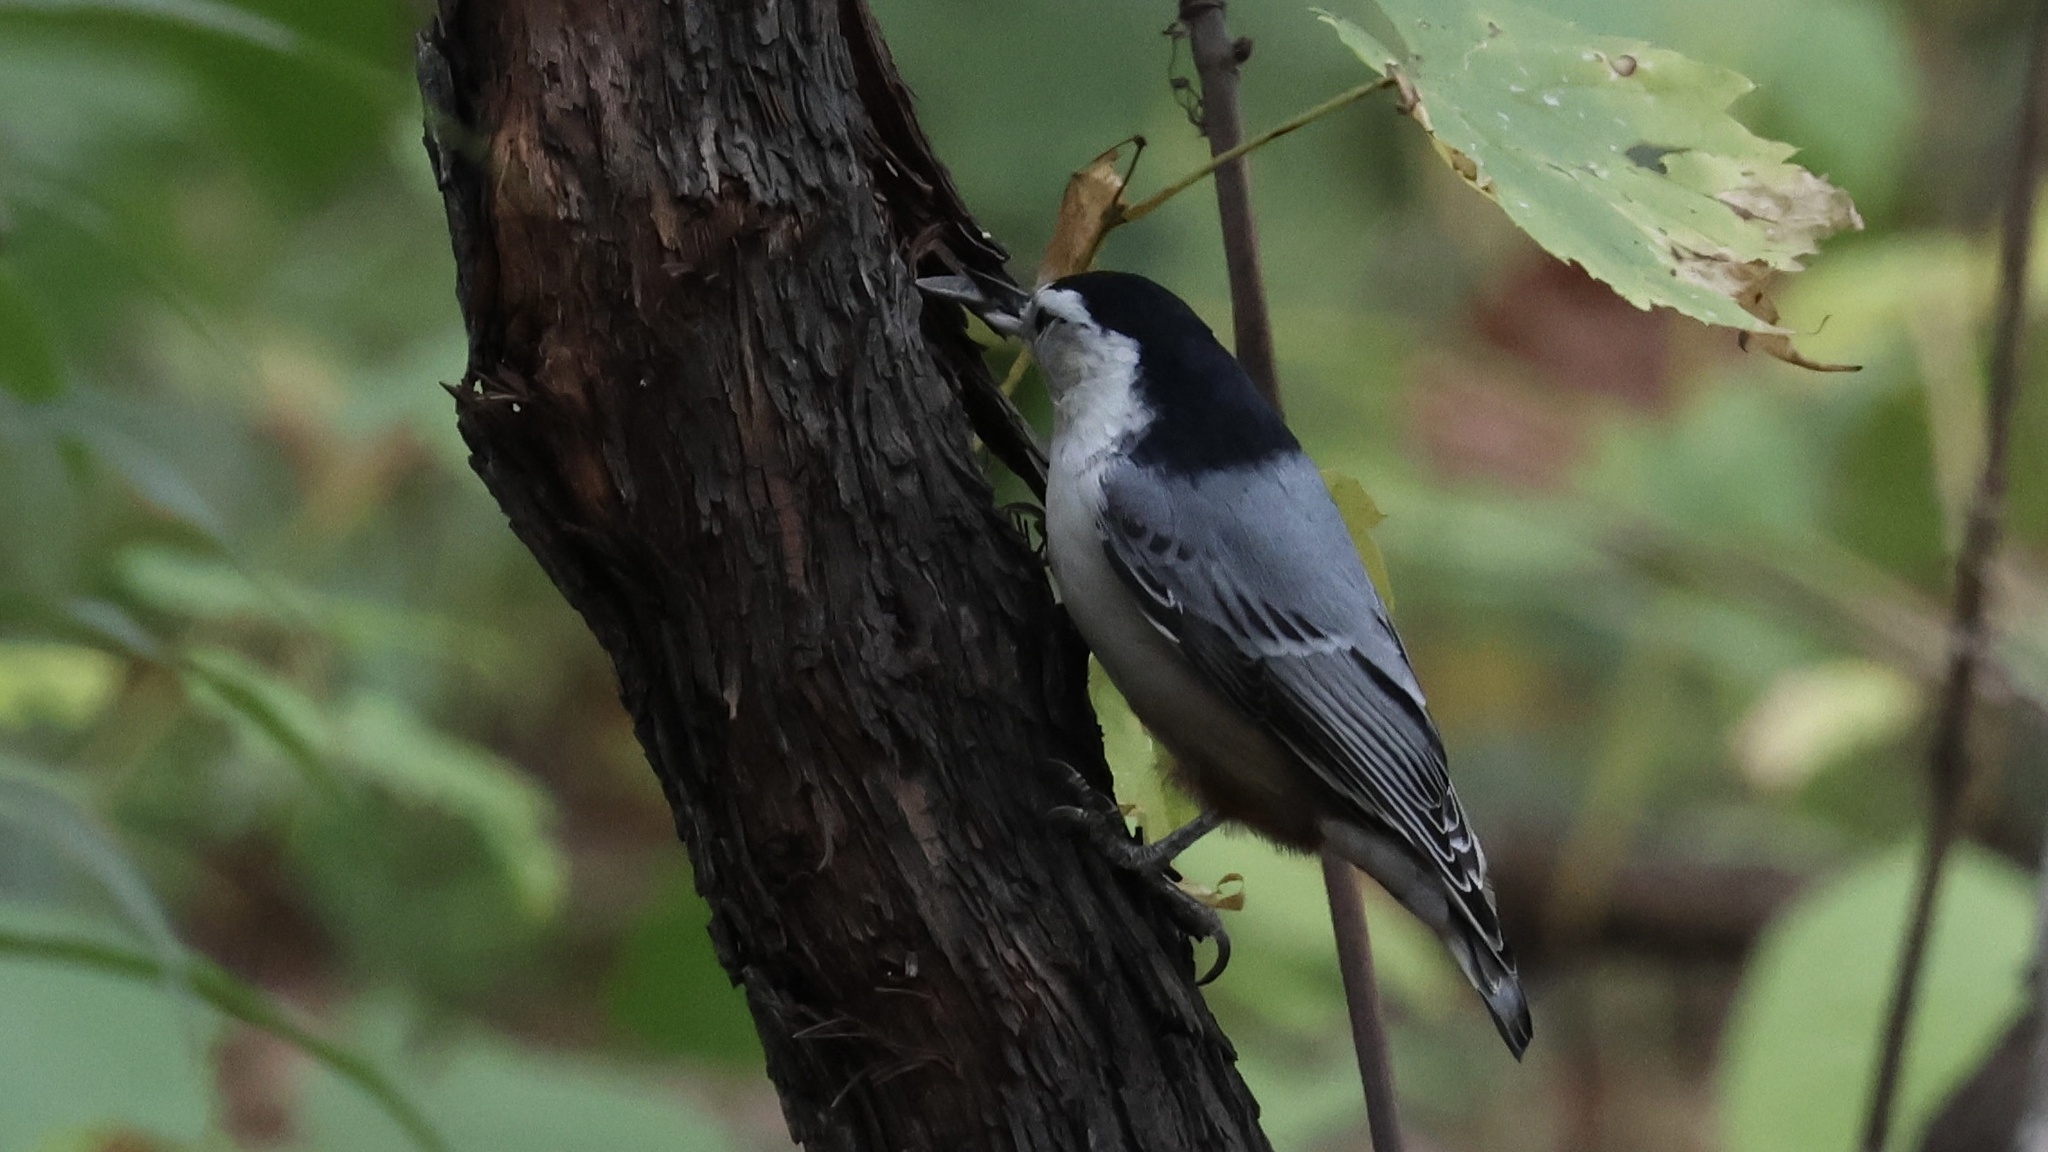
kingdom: Animalia
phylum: Chordata
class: Aves
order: Passeriformes
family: Sittidae
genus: Sitta
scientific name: Sitta carolinensis
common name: White-breasted nuthatch
